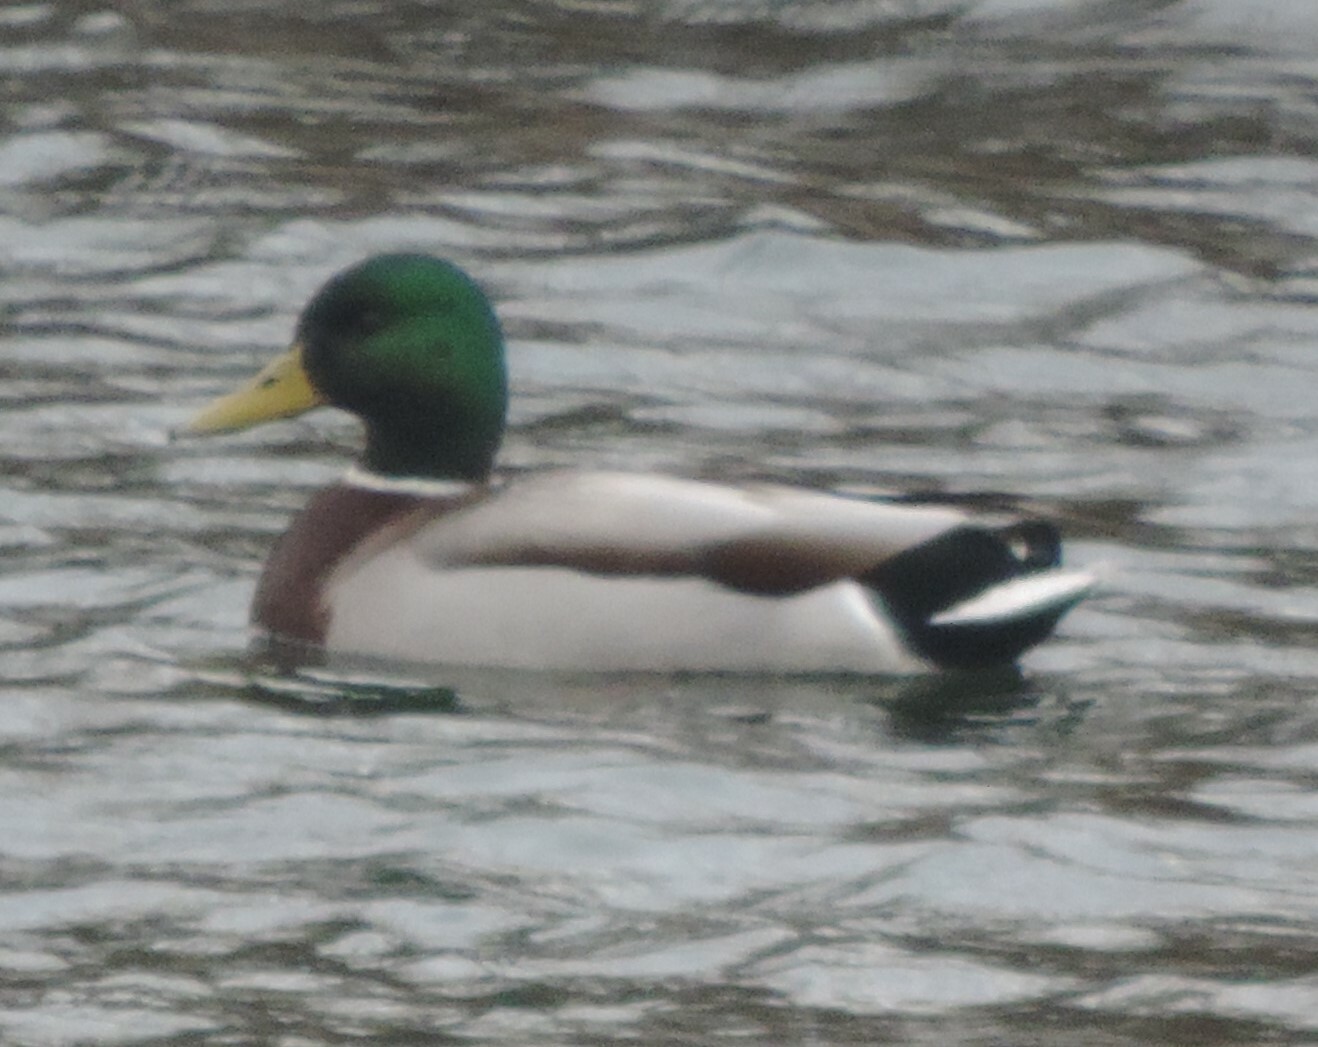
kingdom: Animalia
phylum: Chordata
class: Aves
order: Anseriformes
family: Anatidae
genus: Anas
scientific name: Anas platyrhynchos
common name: Mallard
